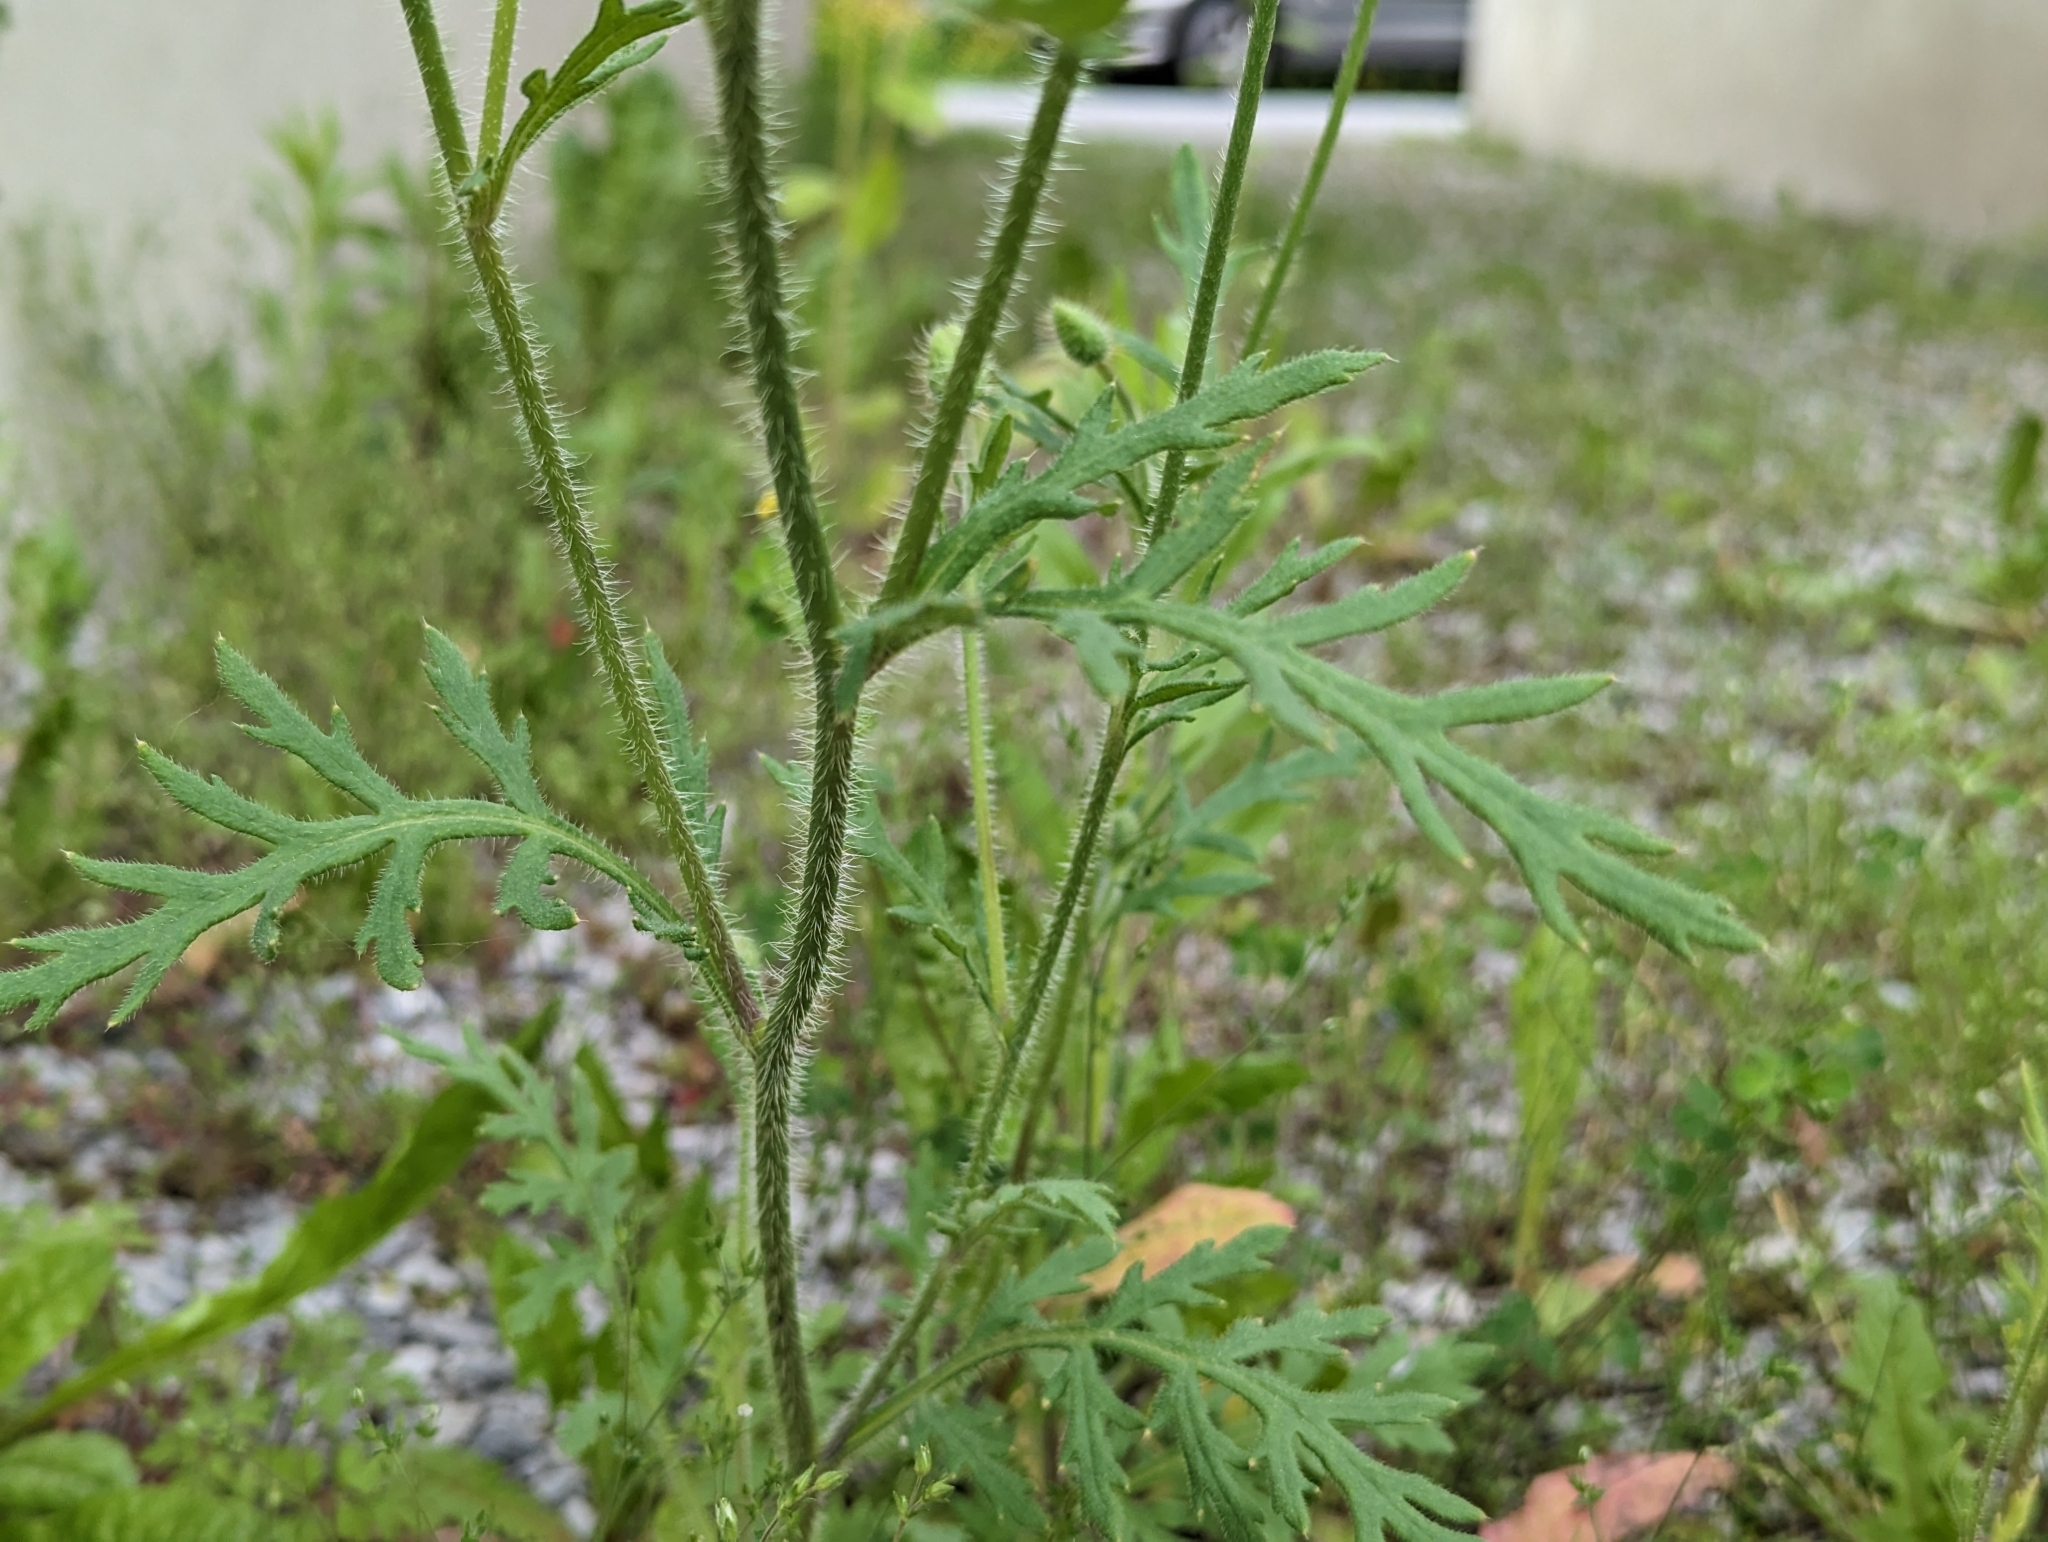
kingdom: Plantae
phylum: Tracheophyta
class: Magnoliopsida
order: Ranunculales
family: Papaveraceae
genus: Papaver
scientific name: Papaver dubium
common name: Long-headed poppy
